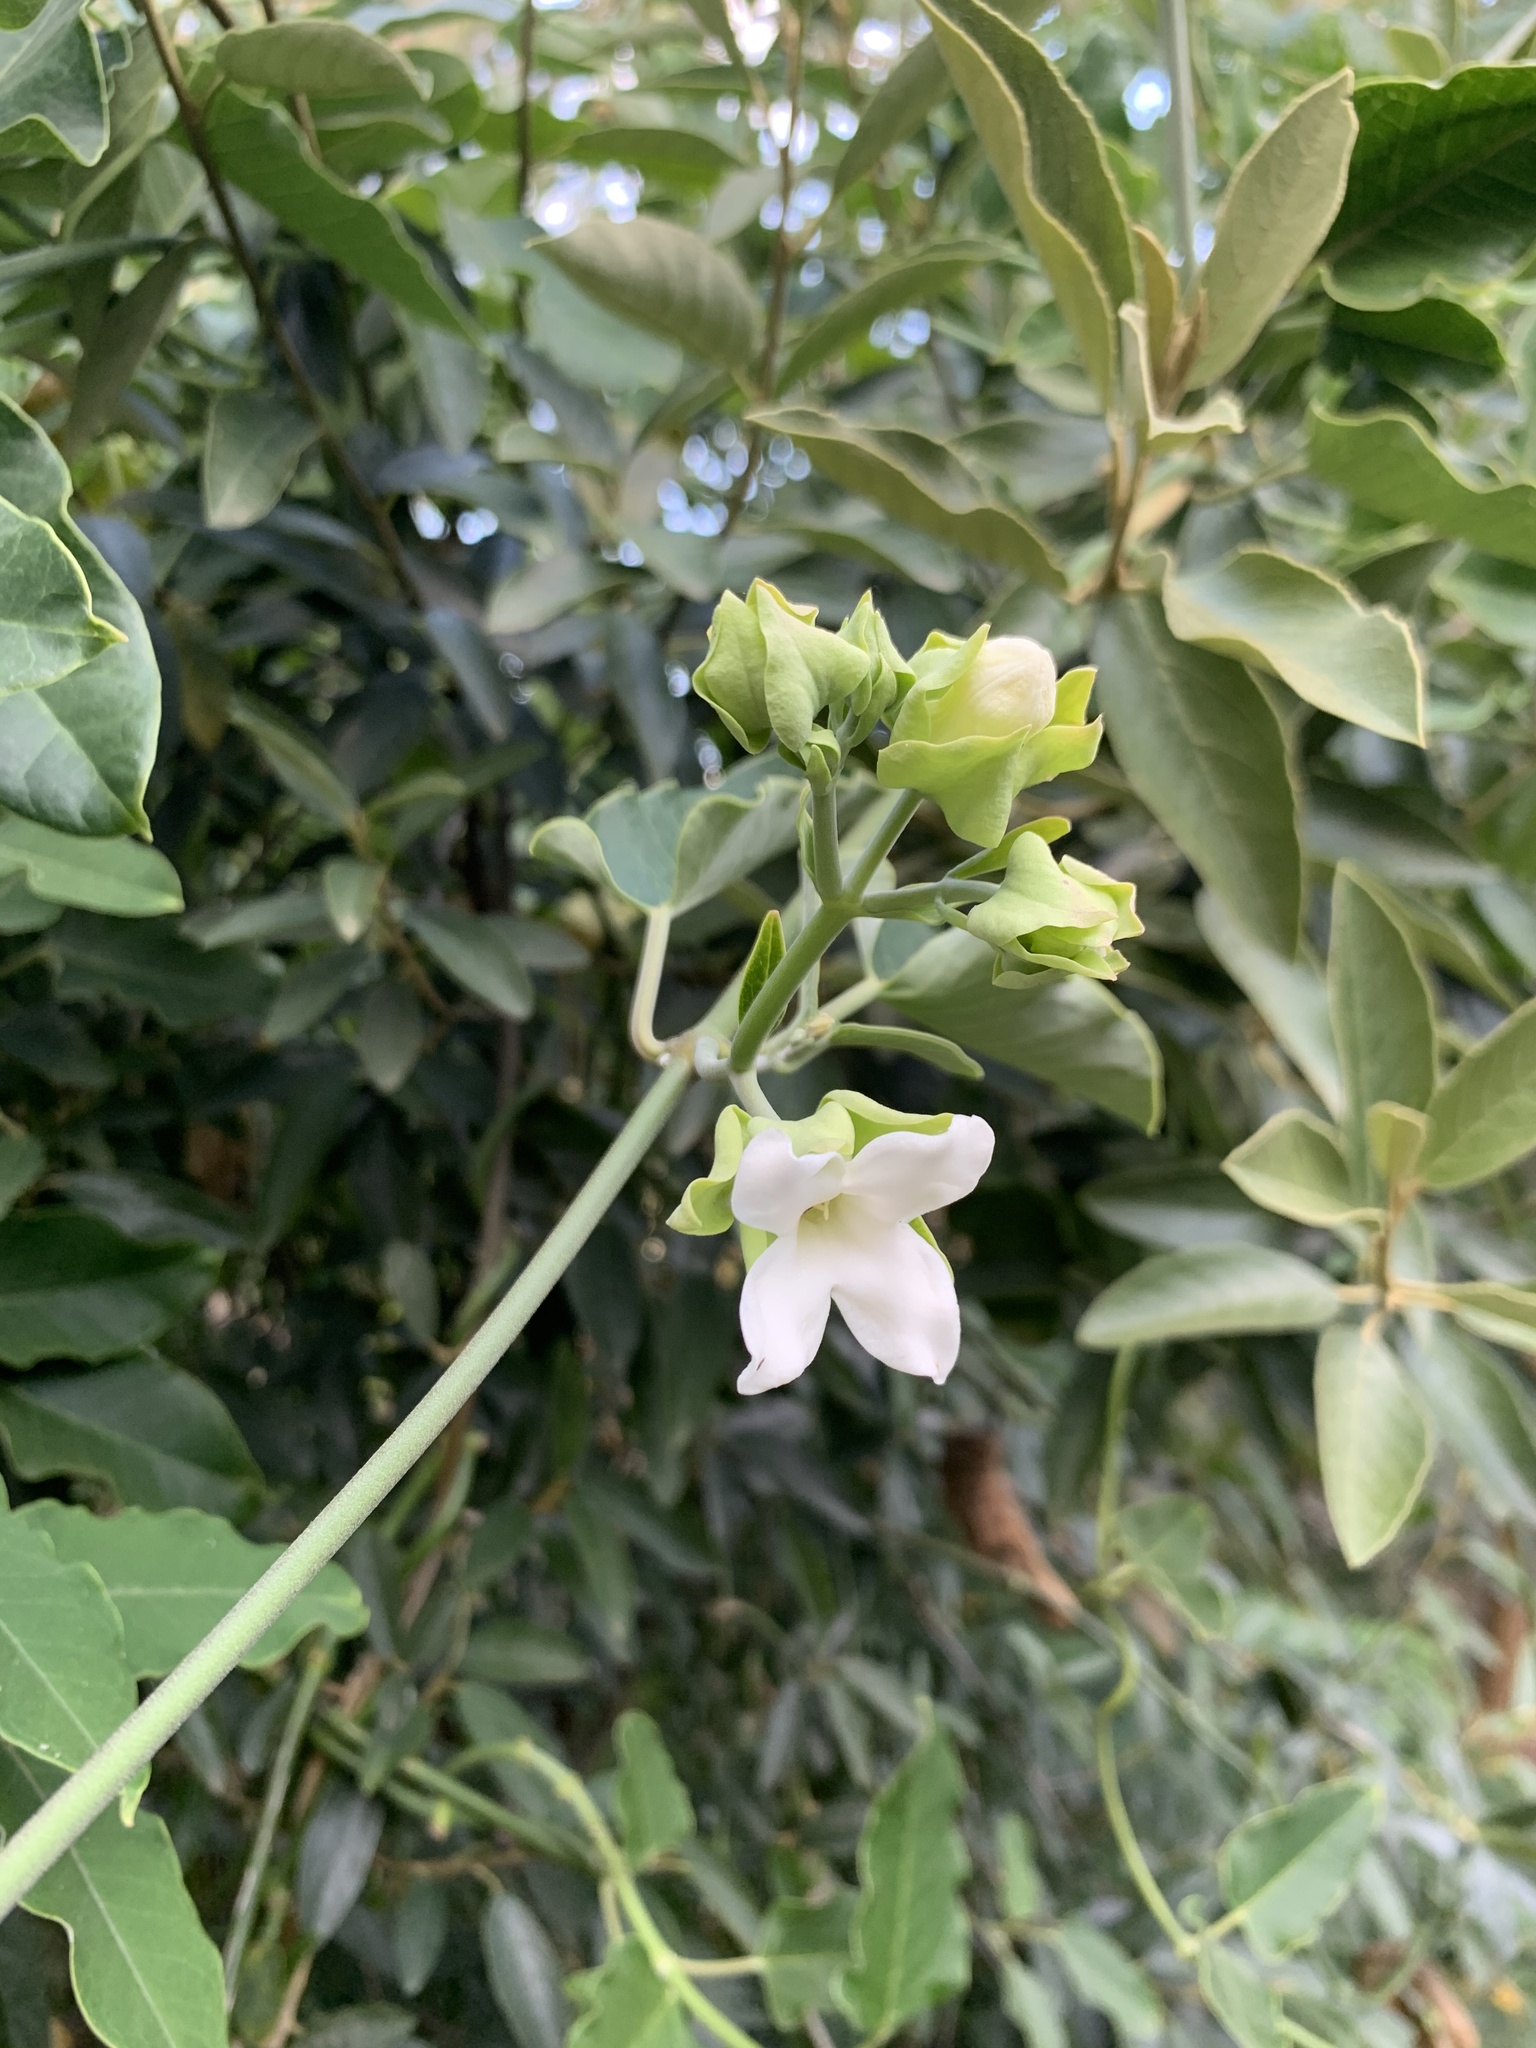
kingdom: Plantae
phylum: Tracheophyta
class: Magnoliopsida
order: Gentianales
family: Apocynaceae
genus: Araujia
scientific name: Araujia sericifera
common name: White bladderflower
